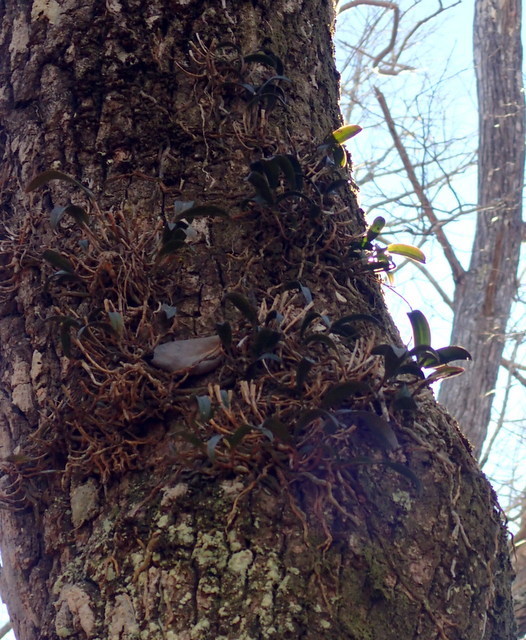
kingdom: Plantae
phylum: Tracheophyta
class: Liliopsida
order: Asparagales
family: Orchidaceae
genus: Epidendrum
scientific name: Epidendrum conopseum
